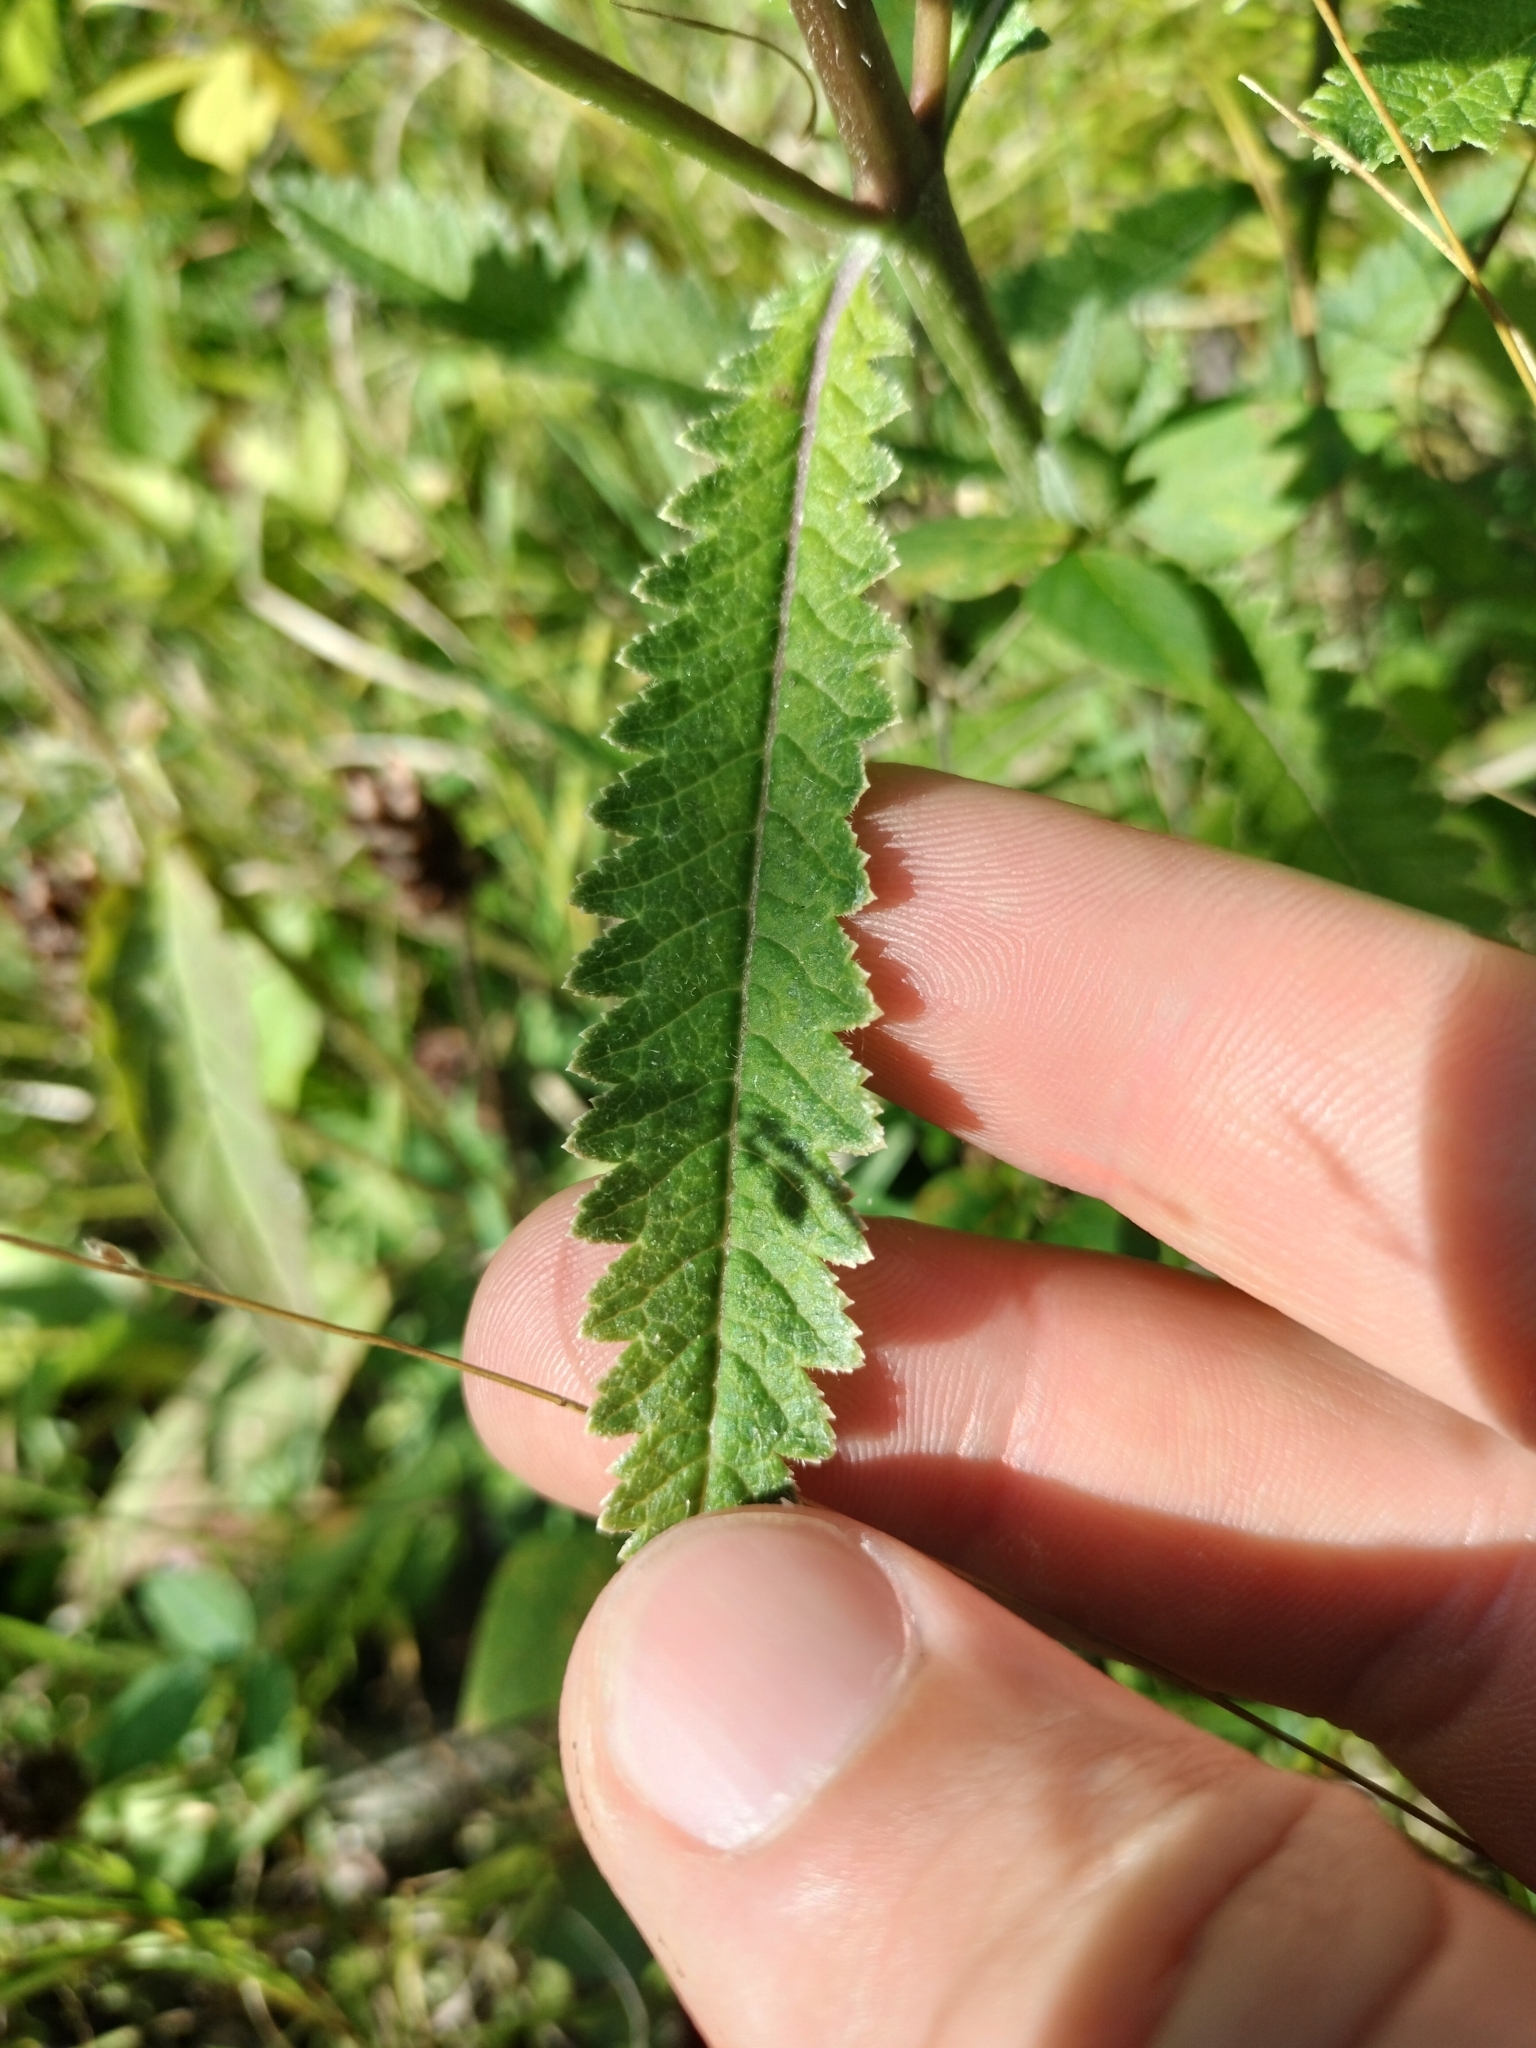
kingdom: Plantae
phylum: Tracheophyta
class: Magnoliopsida
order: Lamiales
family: Orobanchaceae
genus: Pedicularis
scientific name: Pedicularis lanceolata
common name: Swamp lousewort
